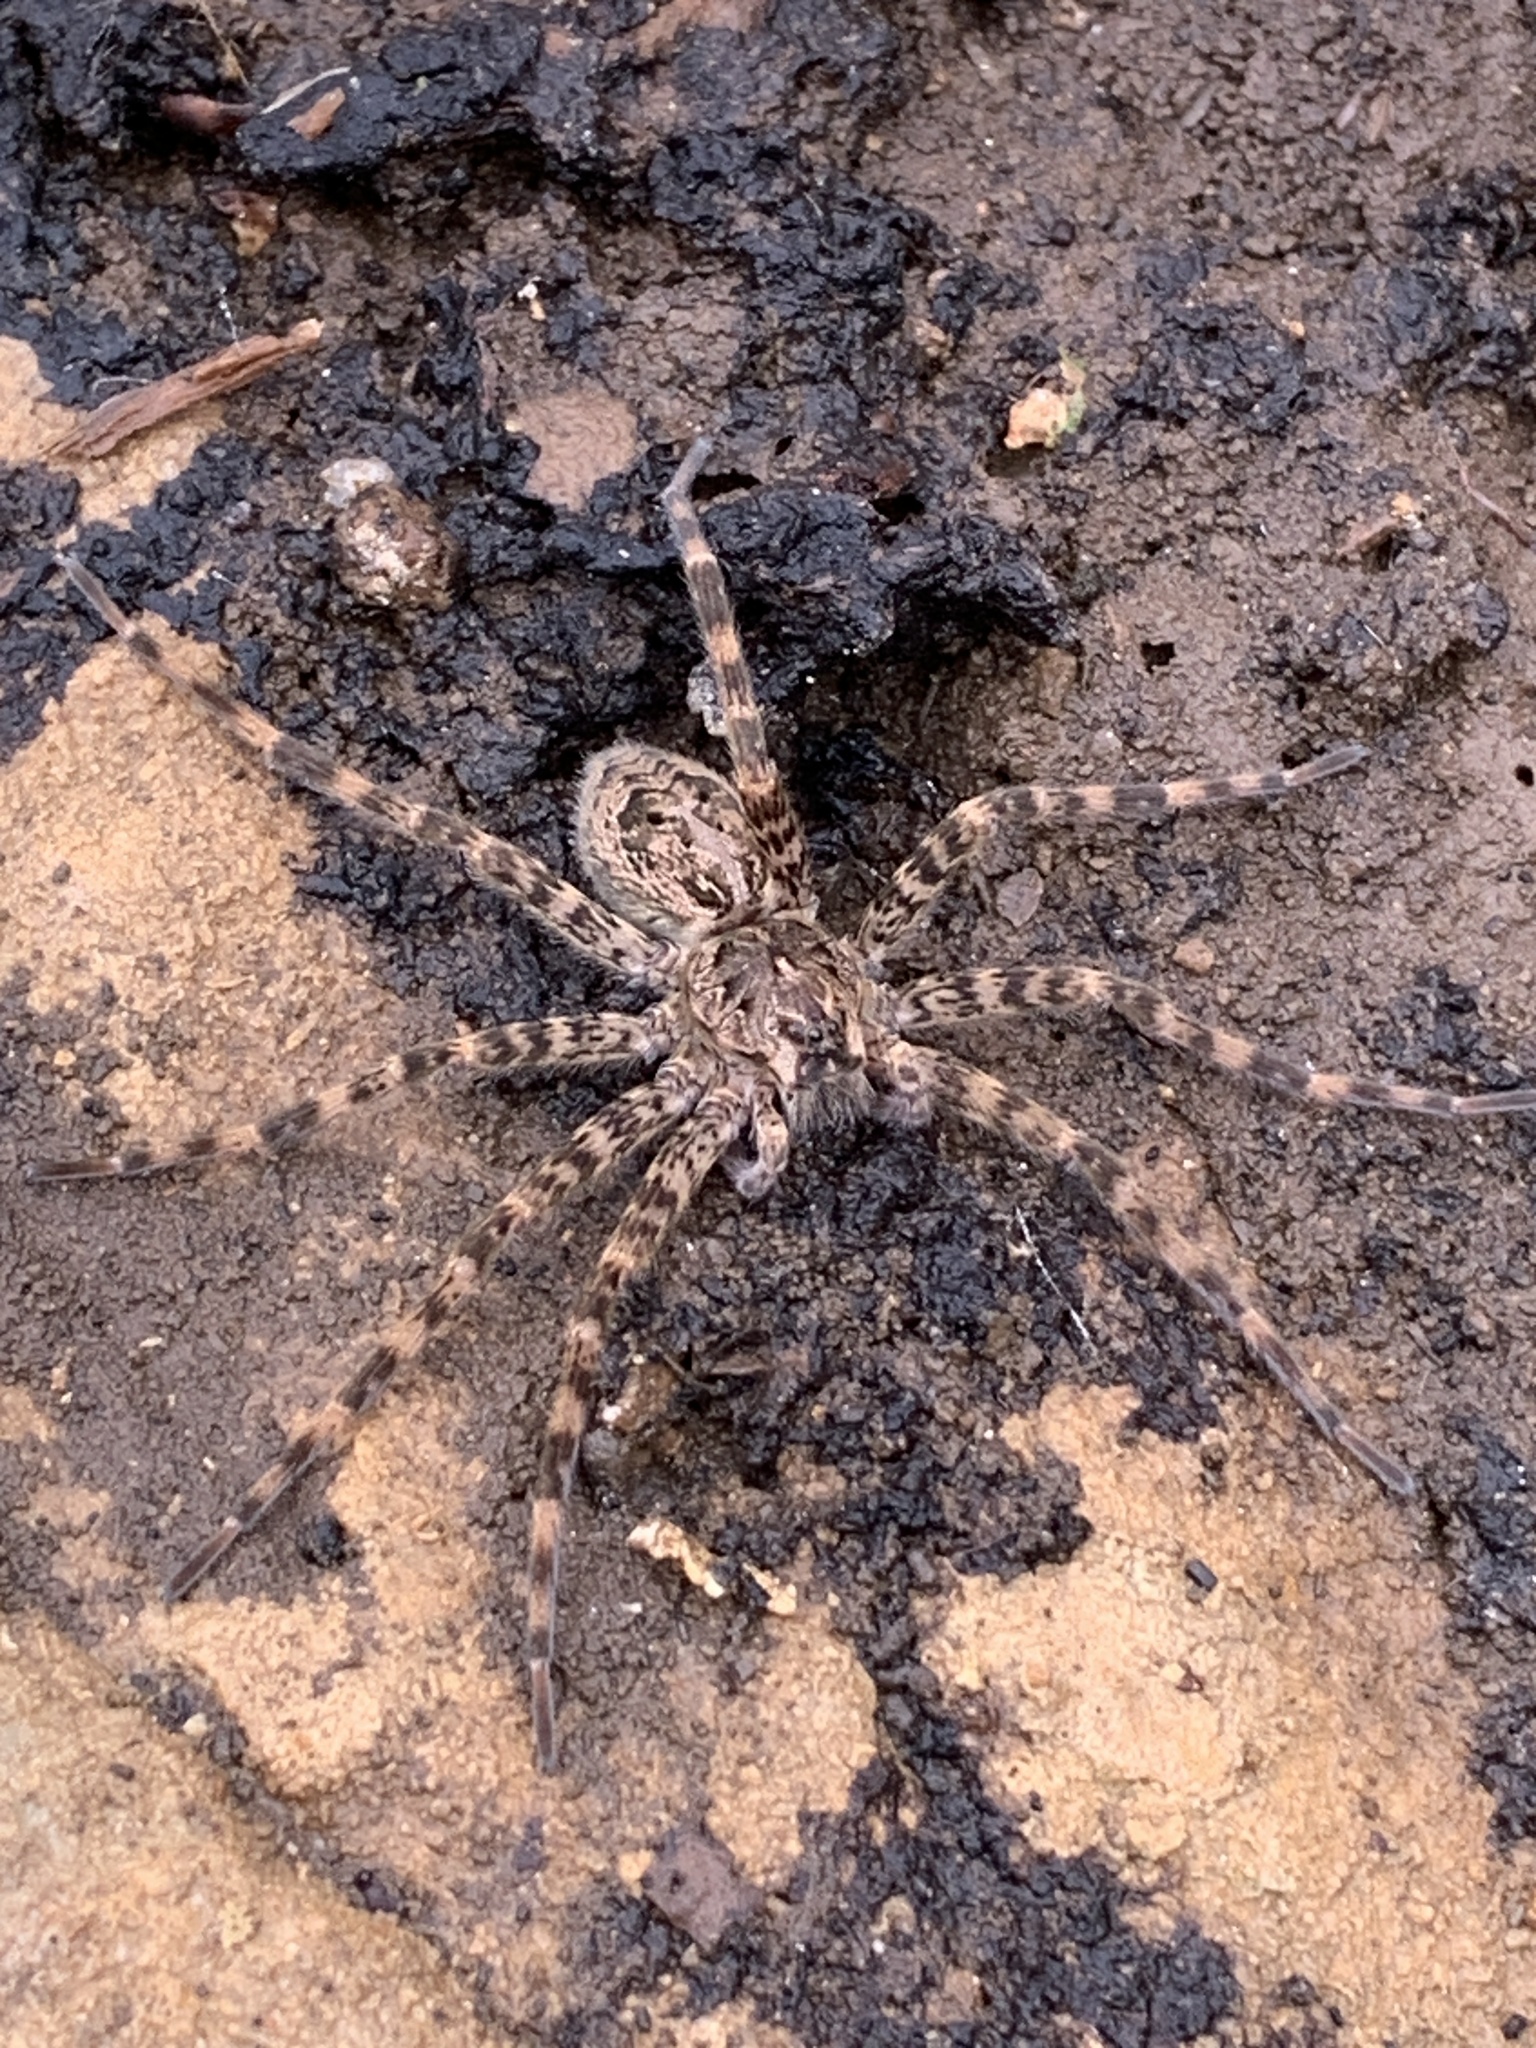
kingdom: Animalia
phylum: Arthropoda
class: Arachnida
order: Araneae
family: Pisauridae
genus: Dolomedes
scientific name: Dolomedes tenebrosus
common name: Dark fishing spider
